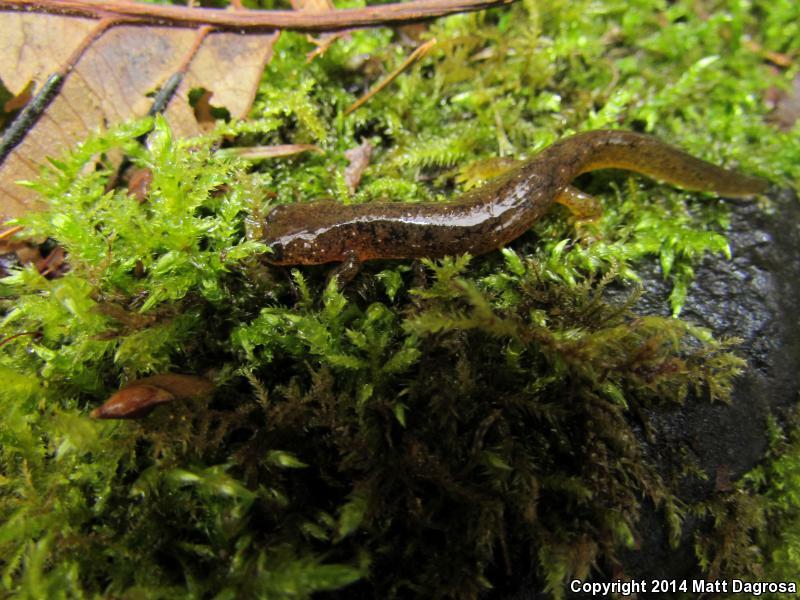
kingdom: Animalia
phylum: Chordata
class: Amphibia
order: Caudata
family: Rhyacotritonidae
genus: Rhyacotriton
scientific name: Rhyacotriton kezeri
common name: Columbia torrent salamander
